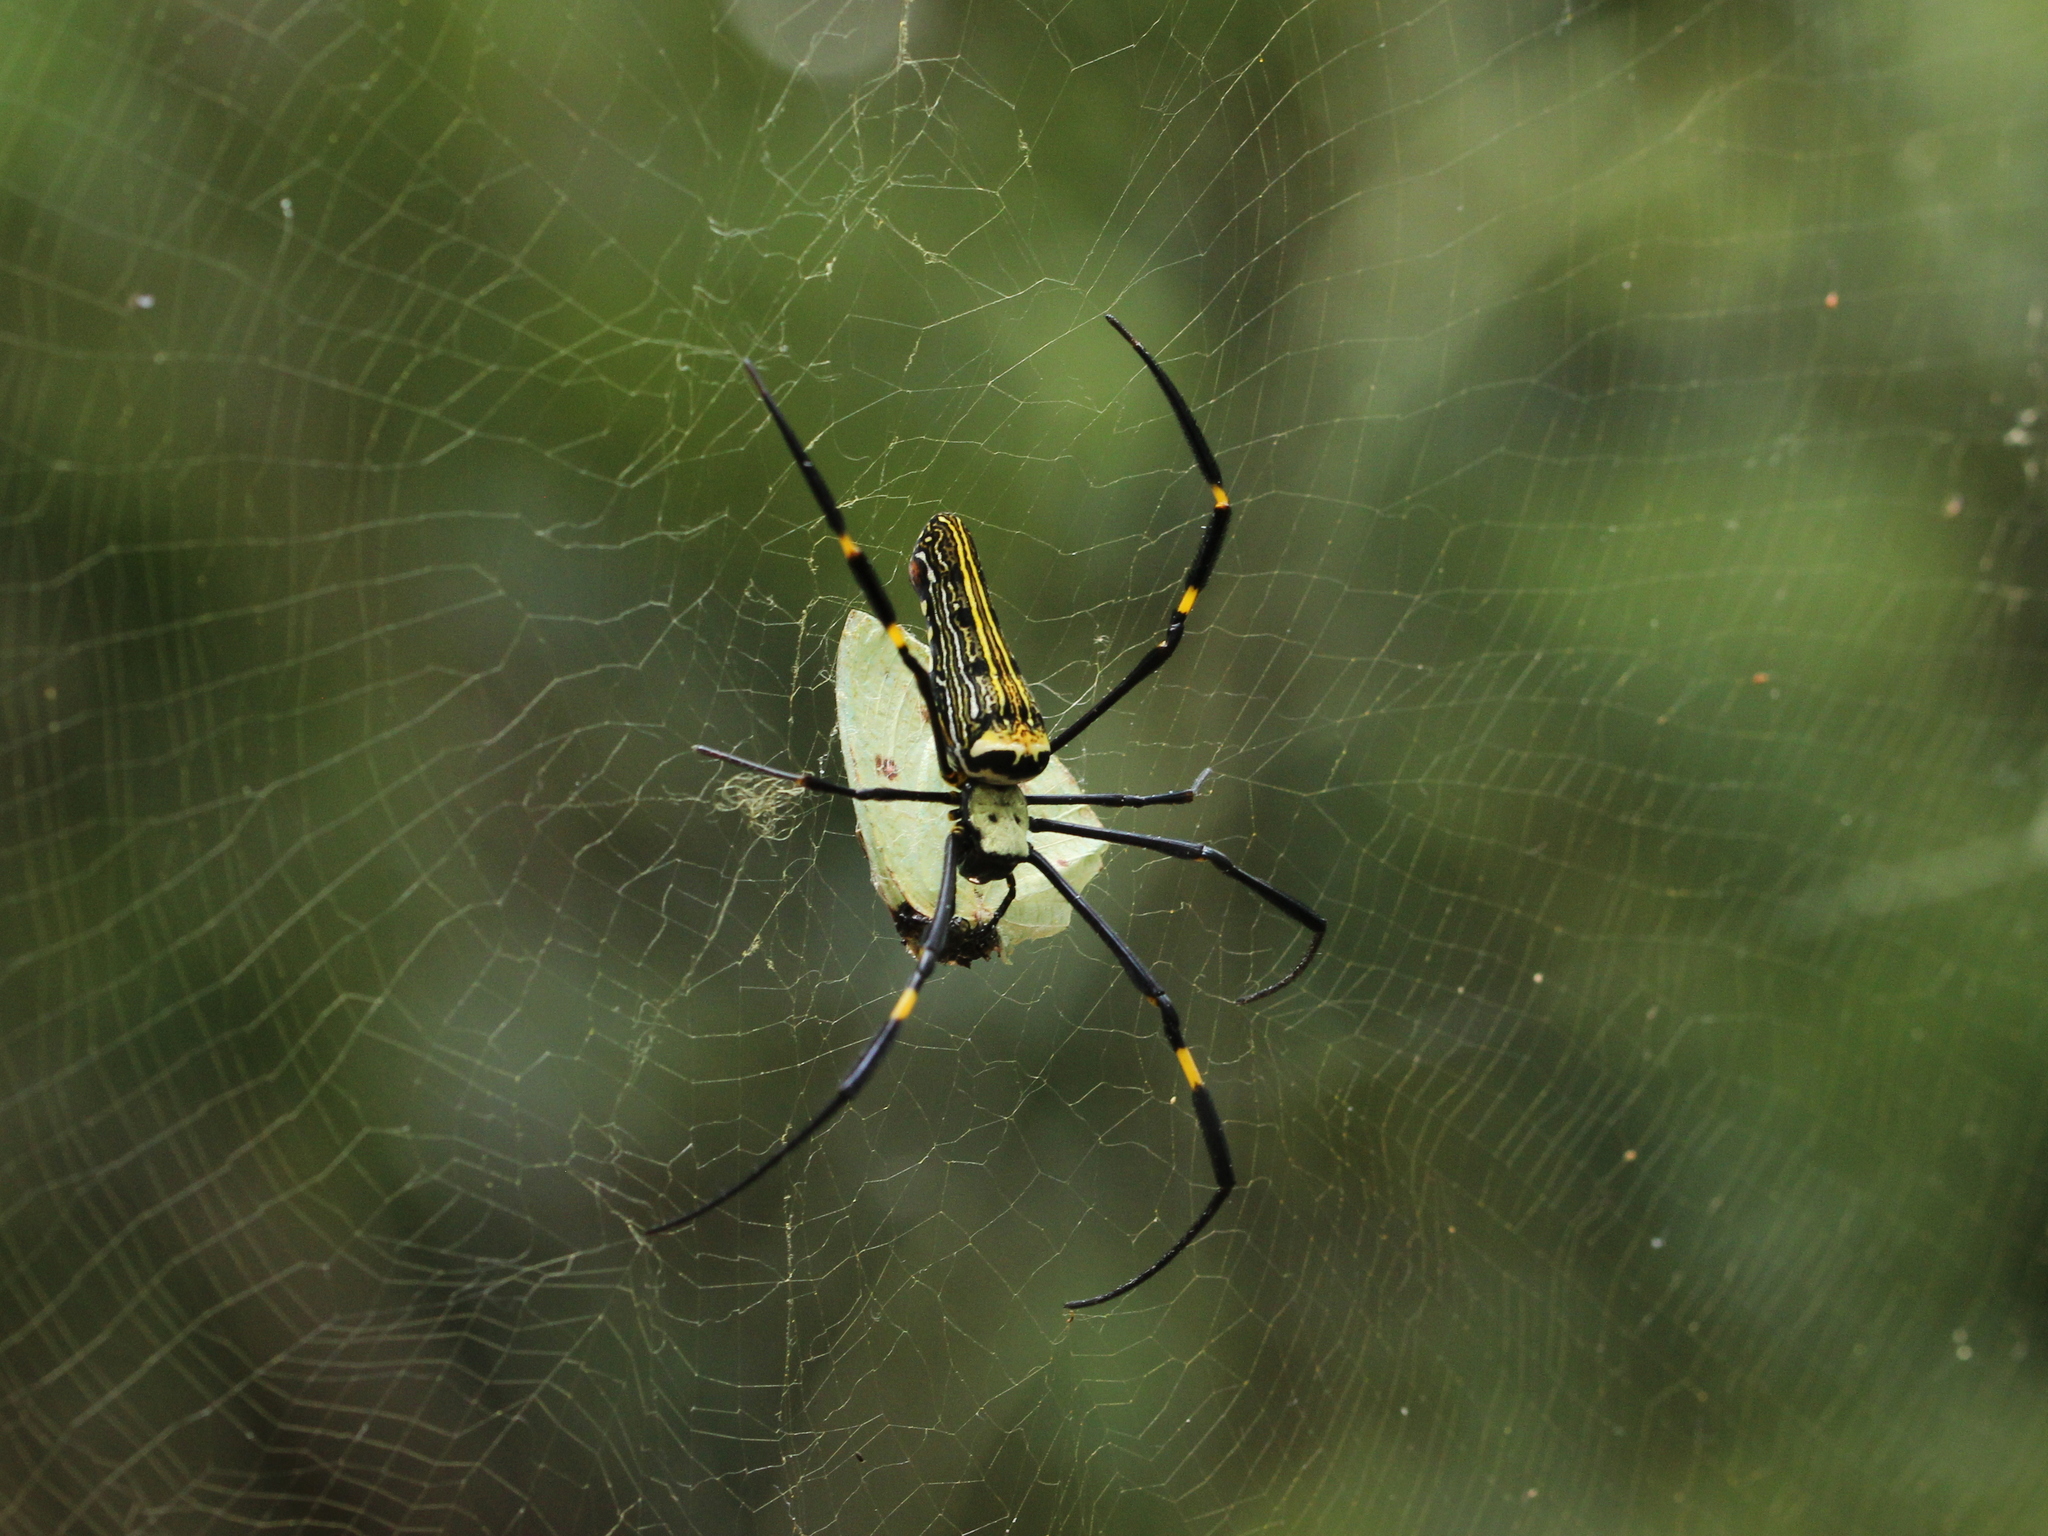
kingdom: Animalia
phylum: Arthropoda
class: Arachnida
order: Araneae
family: Araneidae
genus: Nephila
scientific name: Nephila pilipes
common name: Giant golden orb weaver
